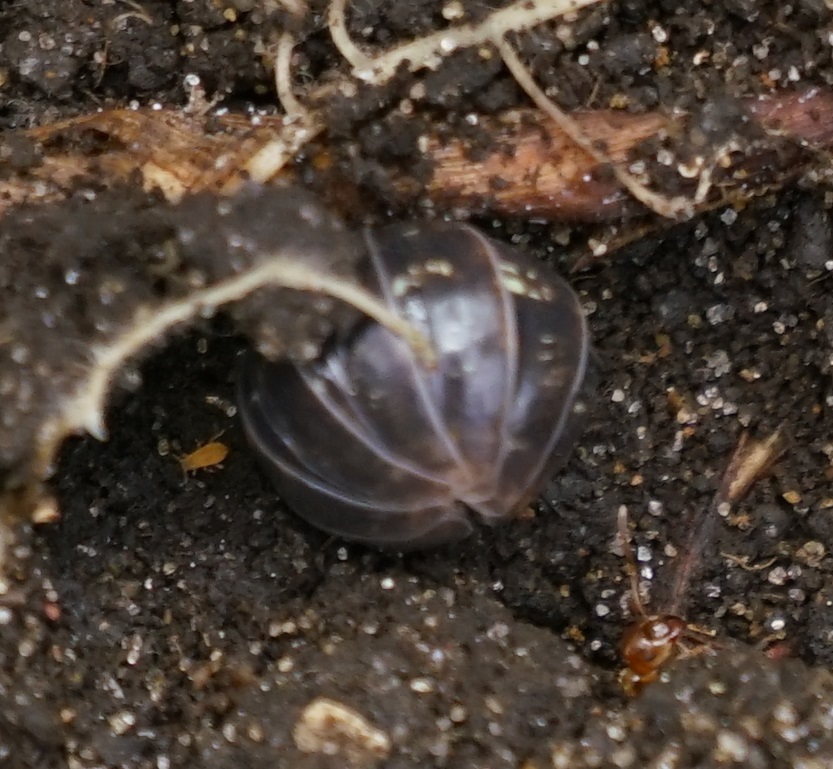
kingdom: Animalia
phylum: Arthropoda
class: Malacostraca
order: Isopoda
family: Armadillidiidae
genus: Armadillidium
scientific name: Armadillidium vulgare
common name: Common pill woodlouse
